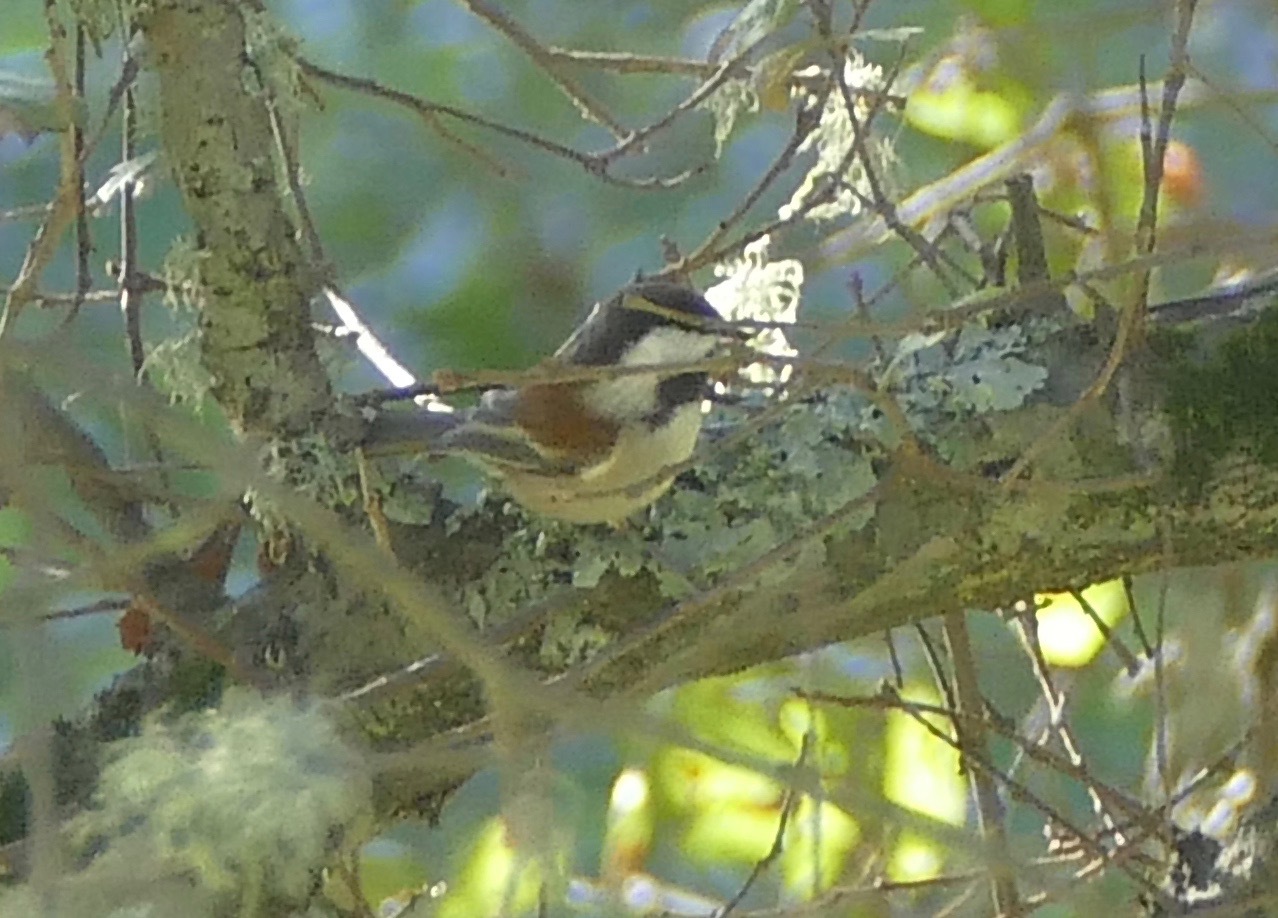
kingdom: Animalia
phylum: Chordata
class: Aves
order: Passeriformes
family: Paridae
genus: Poecile
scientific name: Poecile rufescens
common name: Chestnut-backed chickadee
